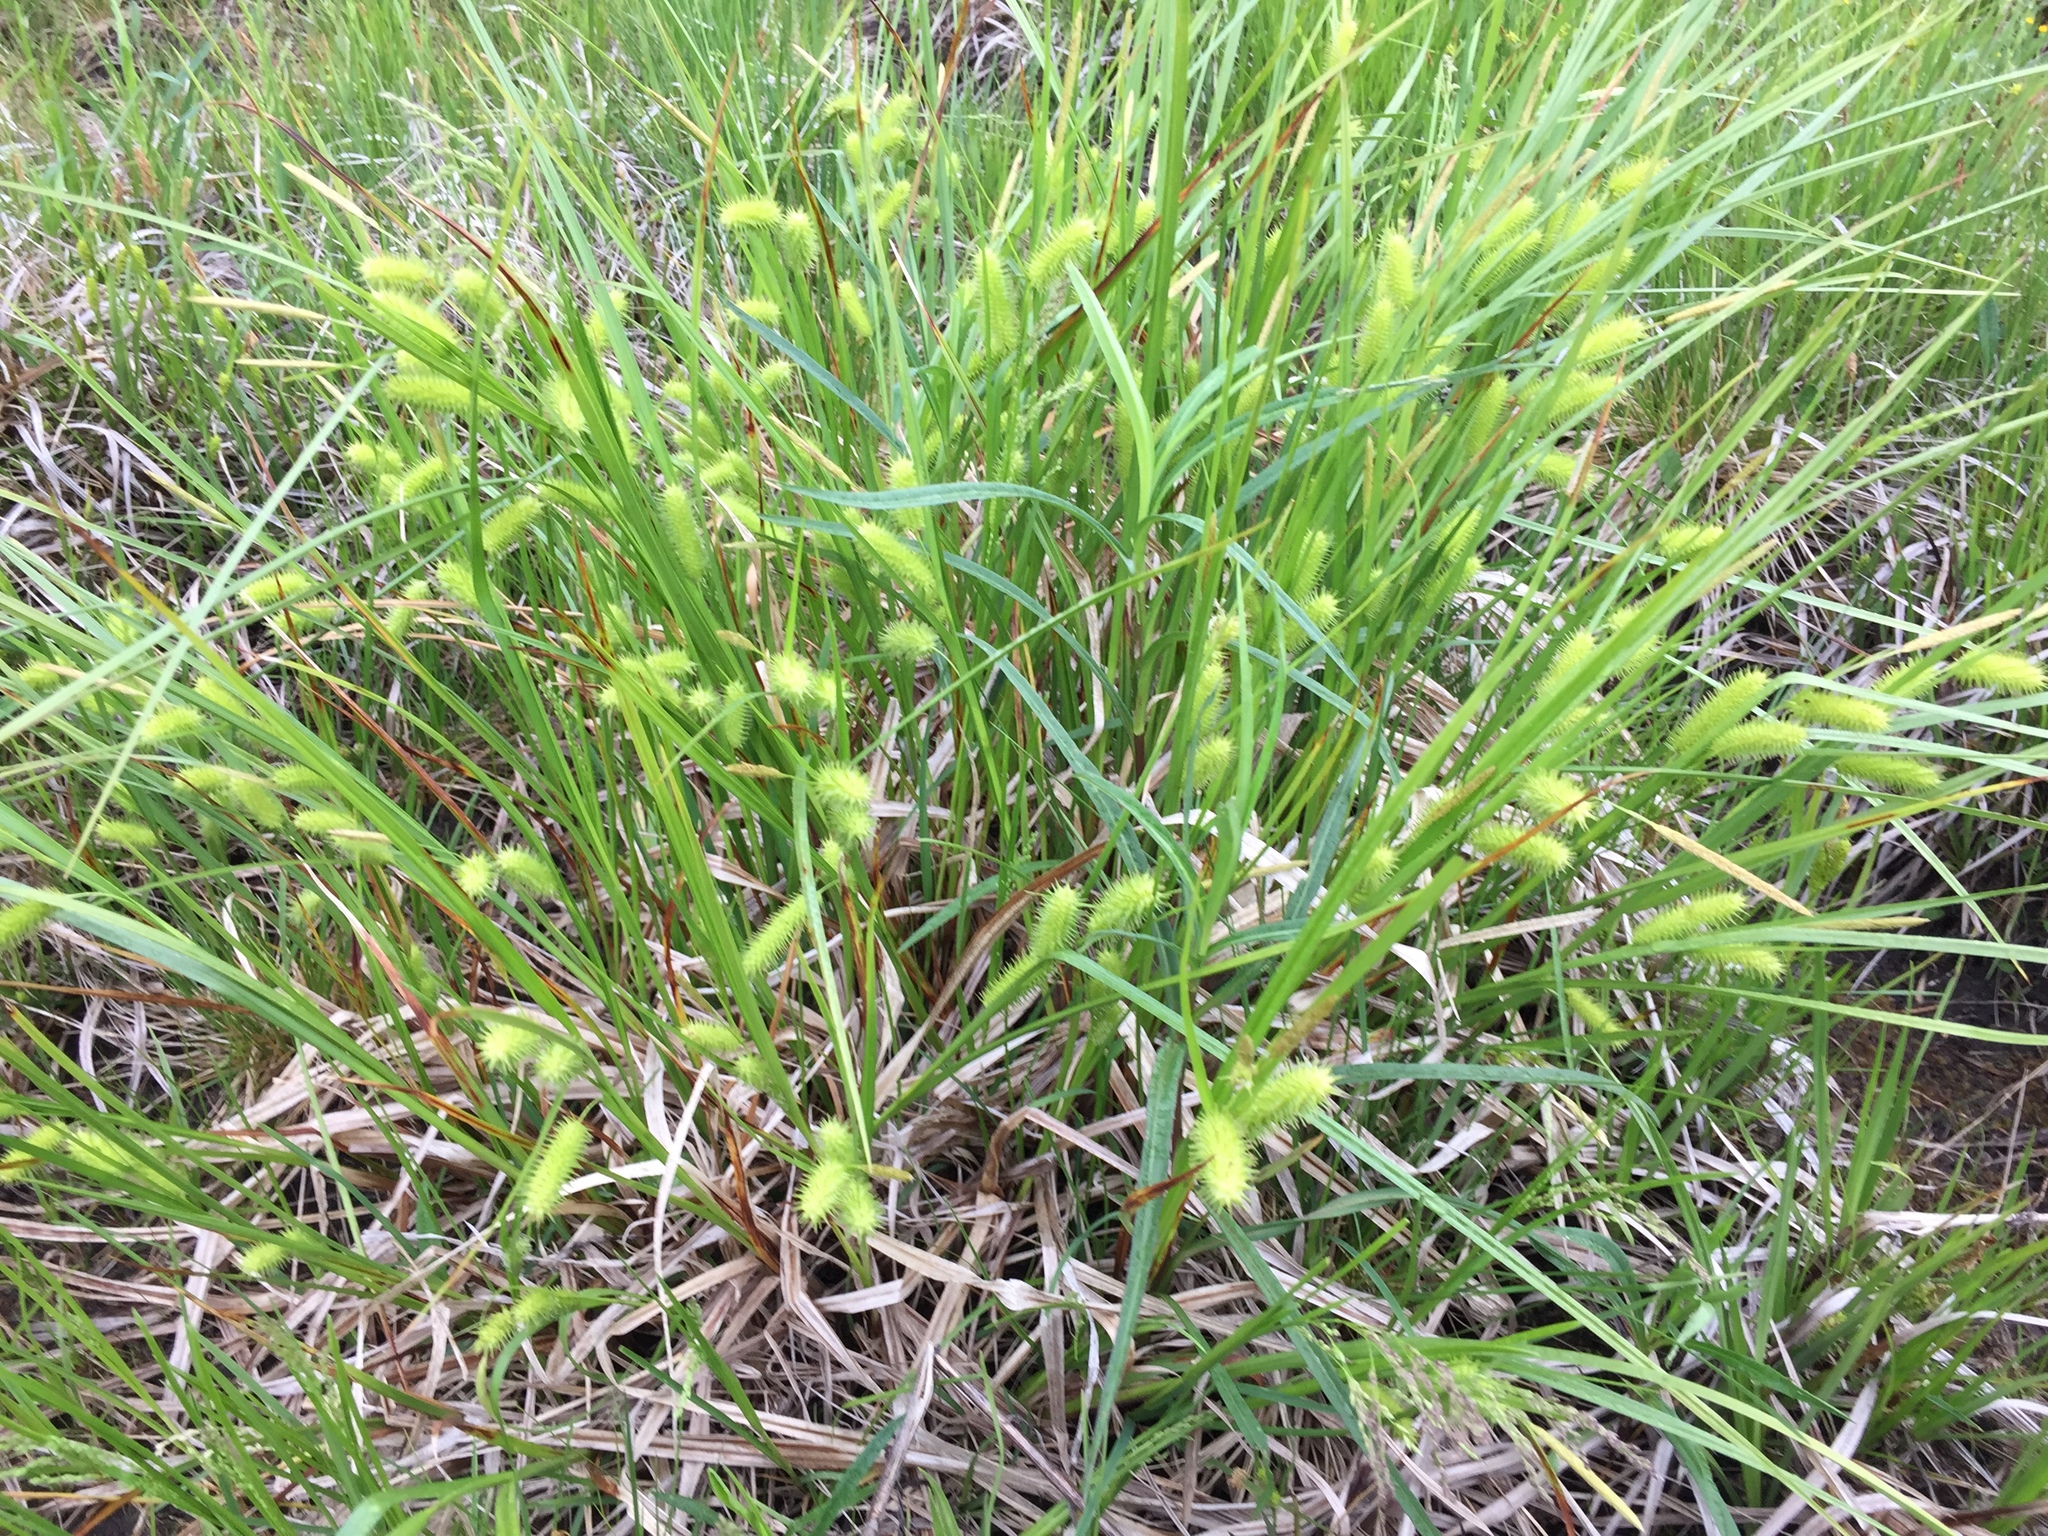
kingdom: Plantae
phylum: Tracheophyta
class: Liliopsida
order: Poales
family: Cyperaceae
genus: Carex
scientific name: Carex hystericina
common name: Bottlebrush sedge
